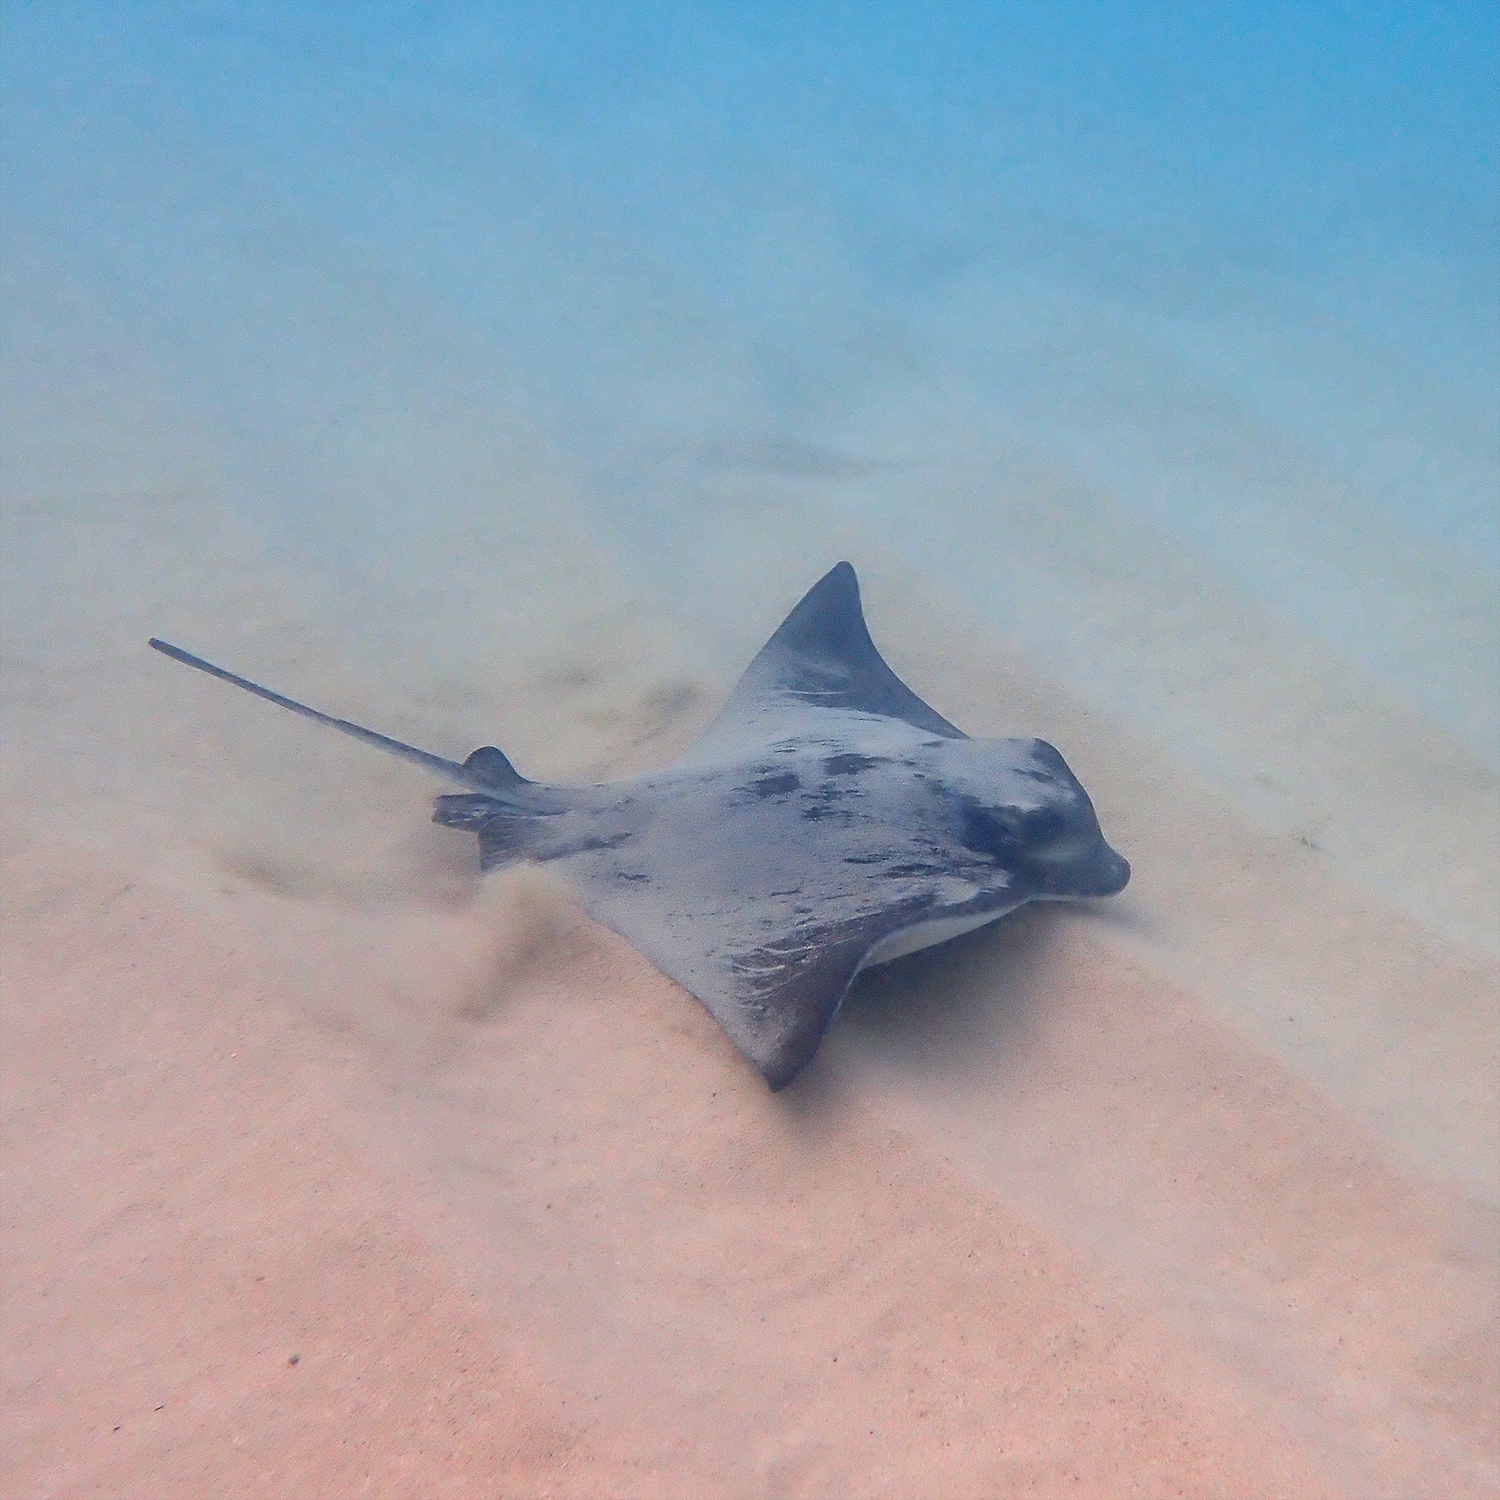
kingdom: Animalia
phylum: Chordata
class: Elasmobranchii
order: Myliobatiformes
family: Myliobatidae
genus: Myliobatis
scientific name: Myliobatis tenuicaudatus
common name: Eagle ray
